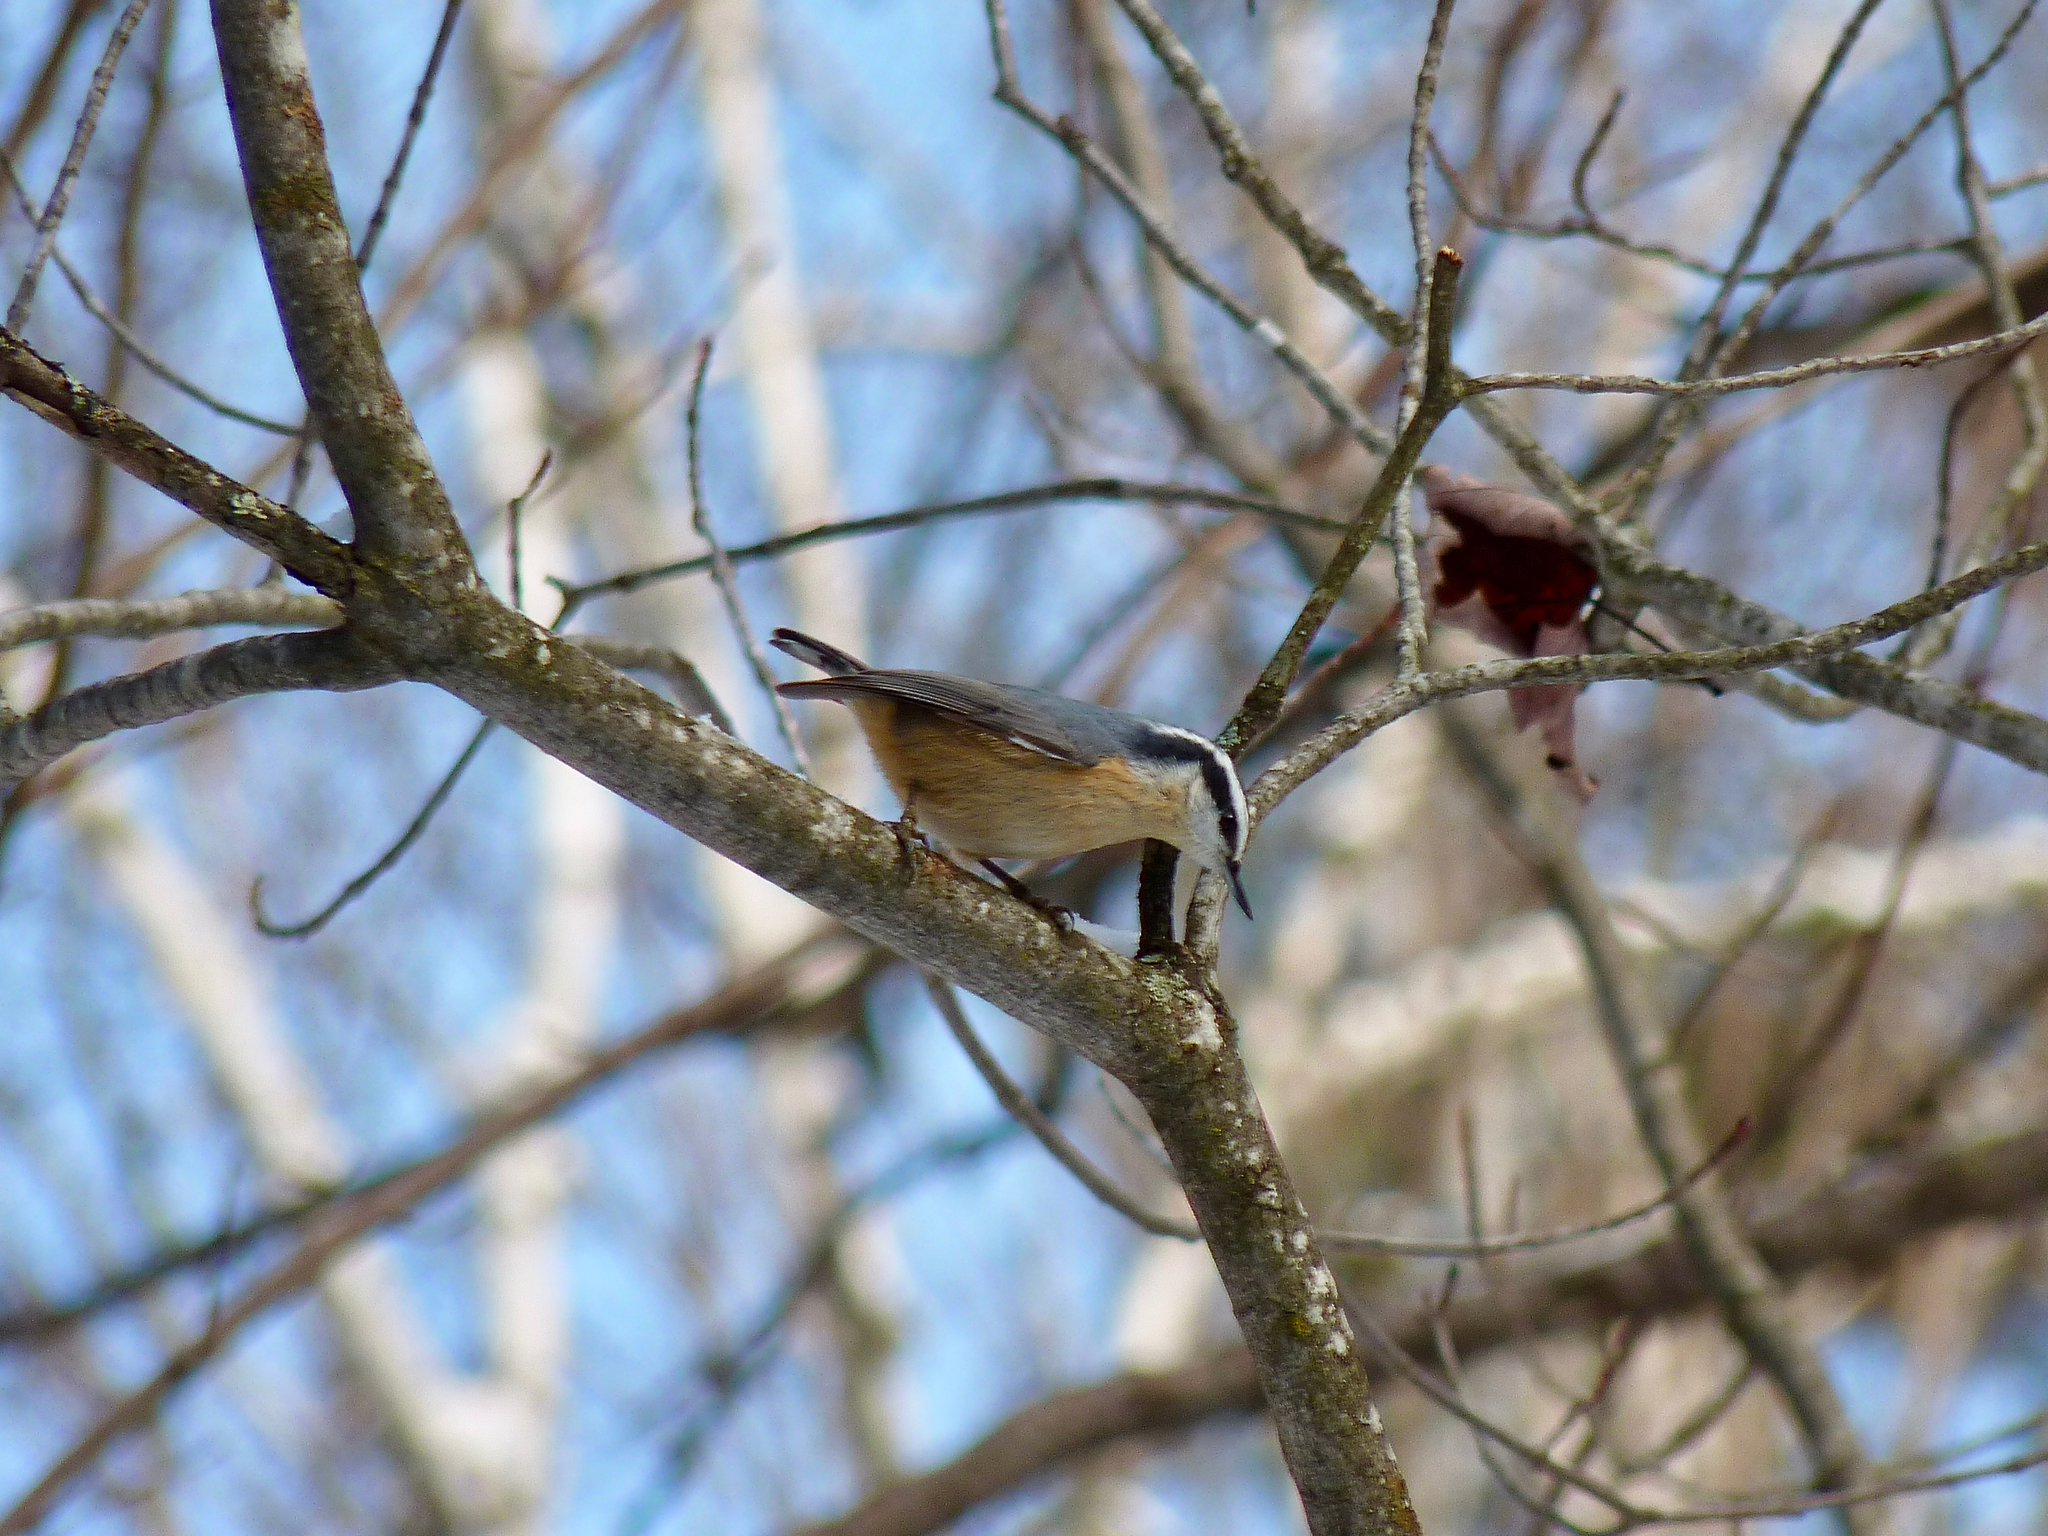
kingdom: Animalia
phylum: Chordata
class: Aves
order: Passeriformes
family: Sittidae
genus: Sitta
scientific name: Sitta canadensis
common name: Red-breasted nuthatch
